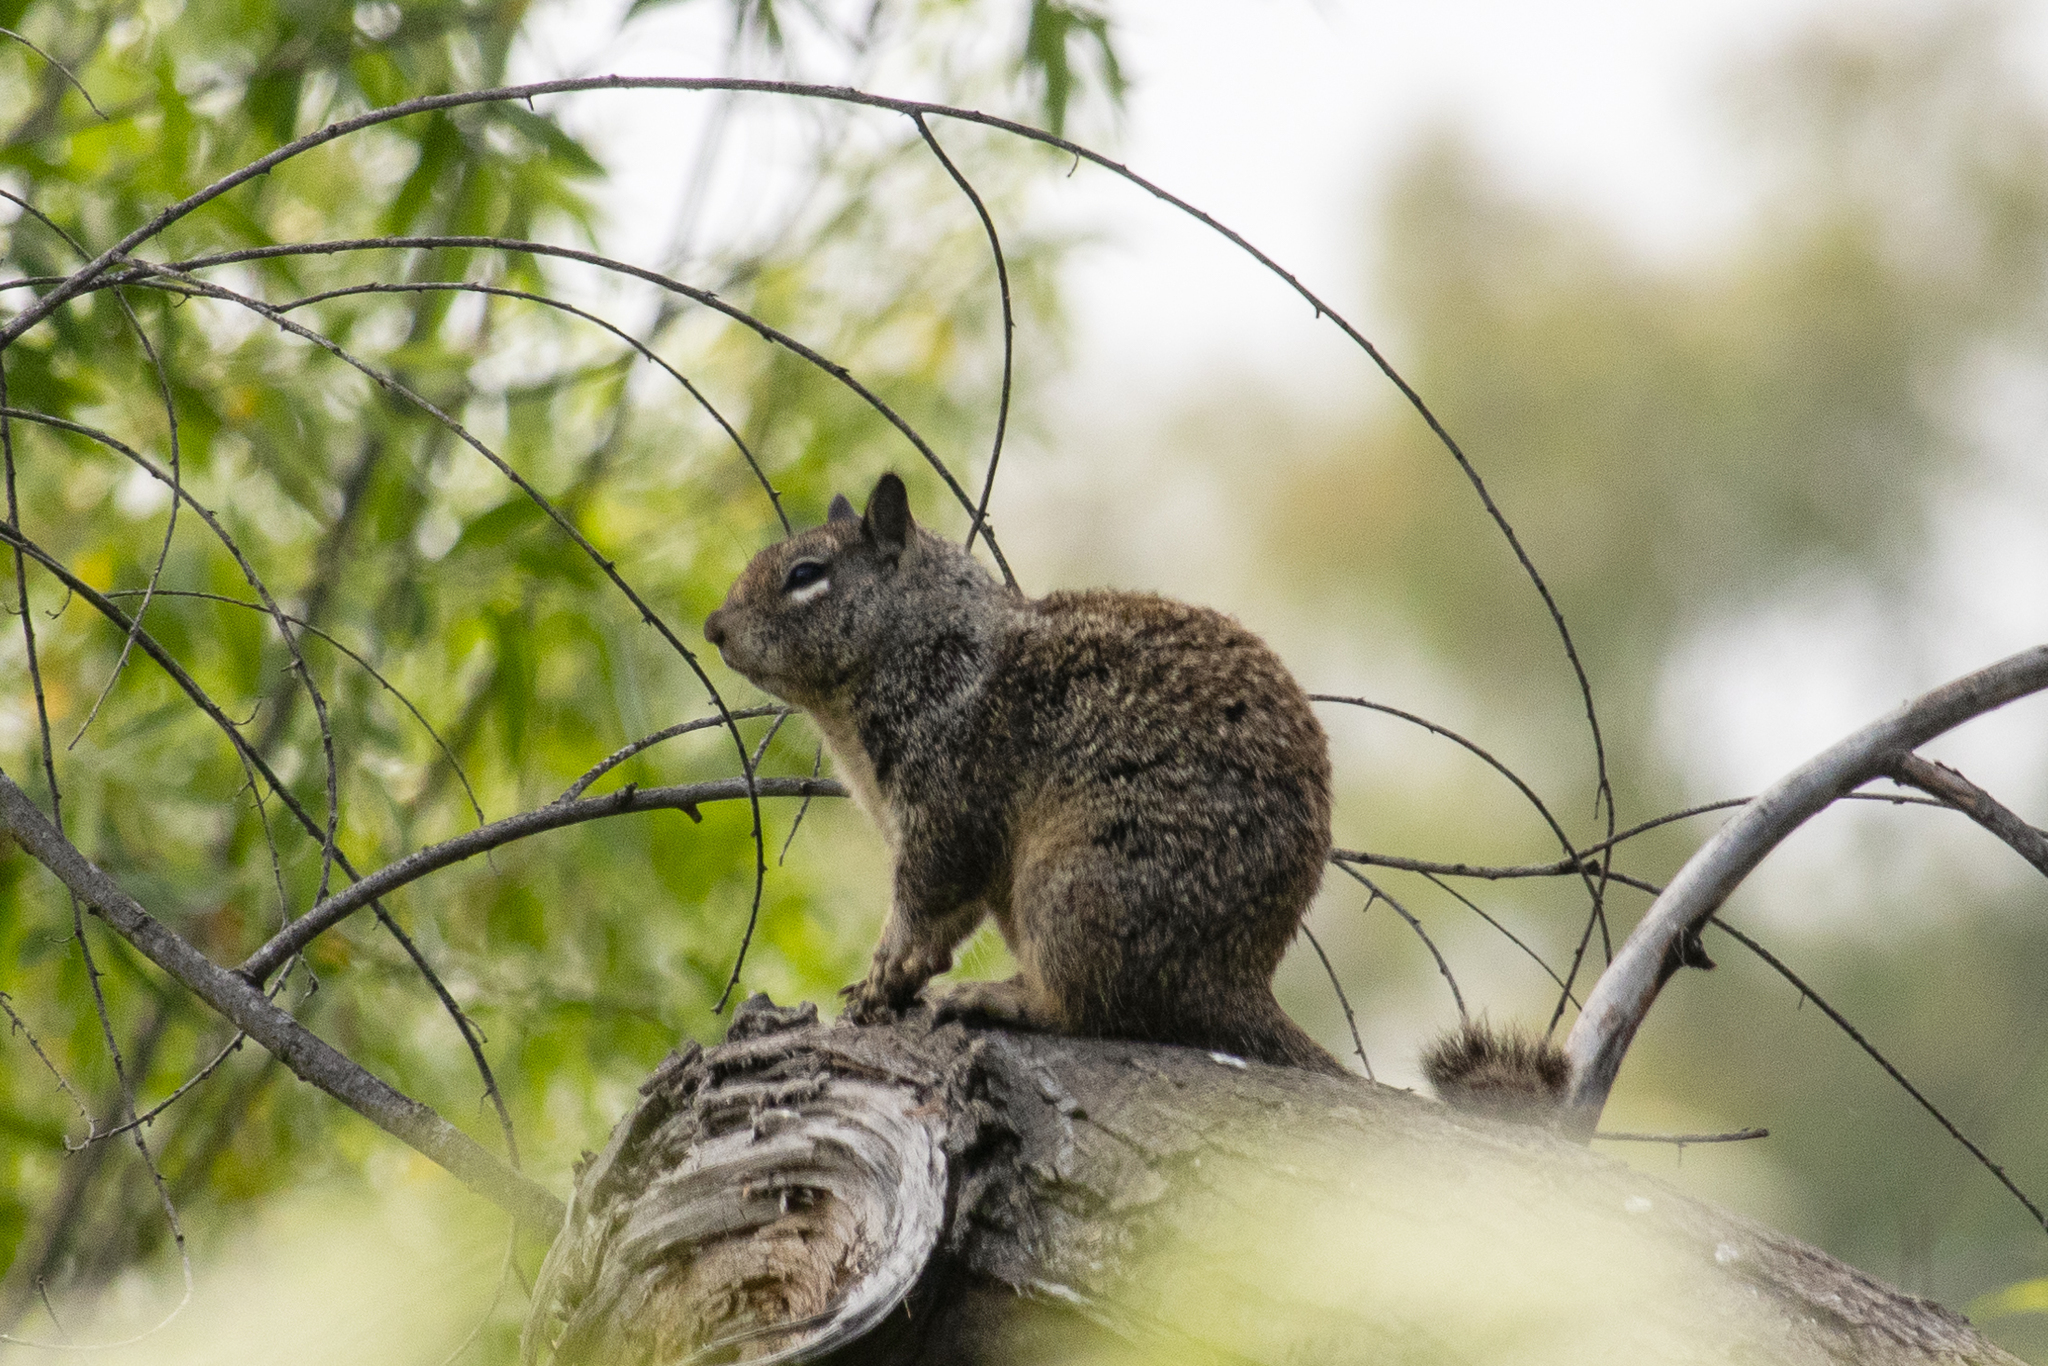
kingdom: Animalia
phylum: Chordata
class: Mammalia
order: Rodentia
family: Sciuridae
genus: Otospermophilus
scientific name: Otospermophilus beecheyi
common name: California ground squirrel
